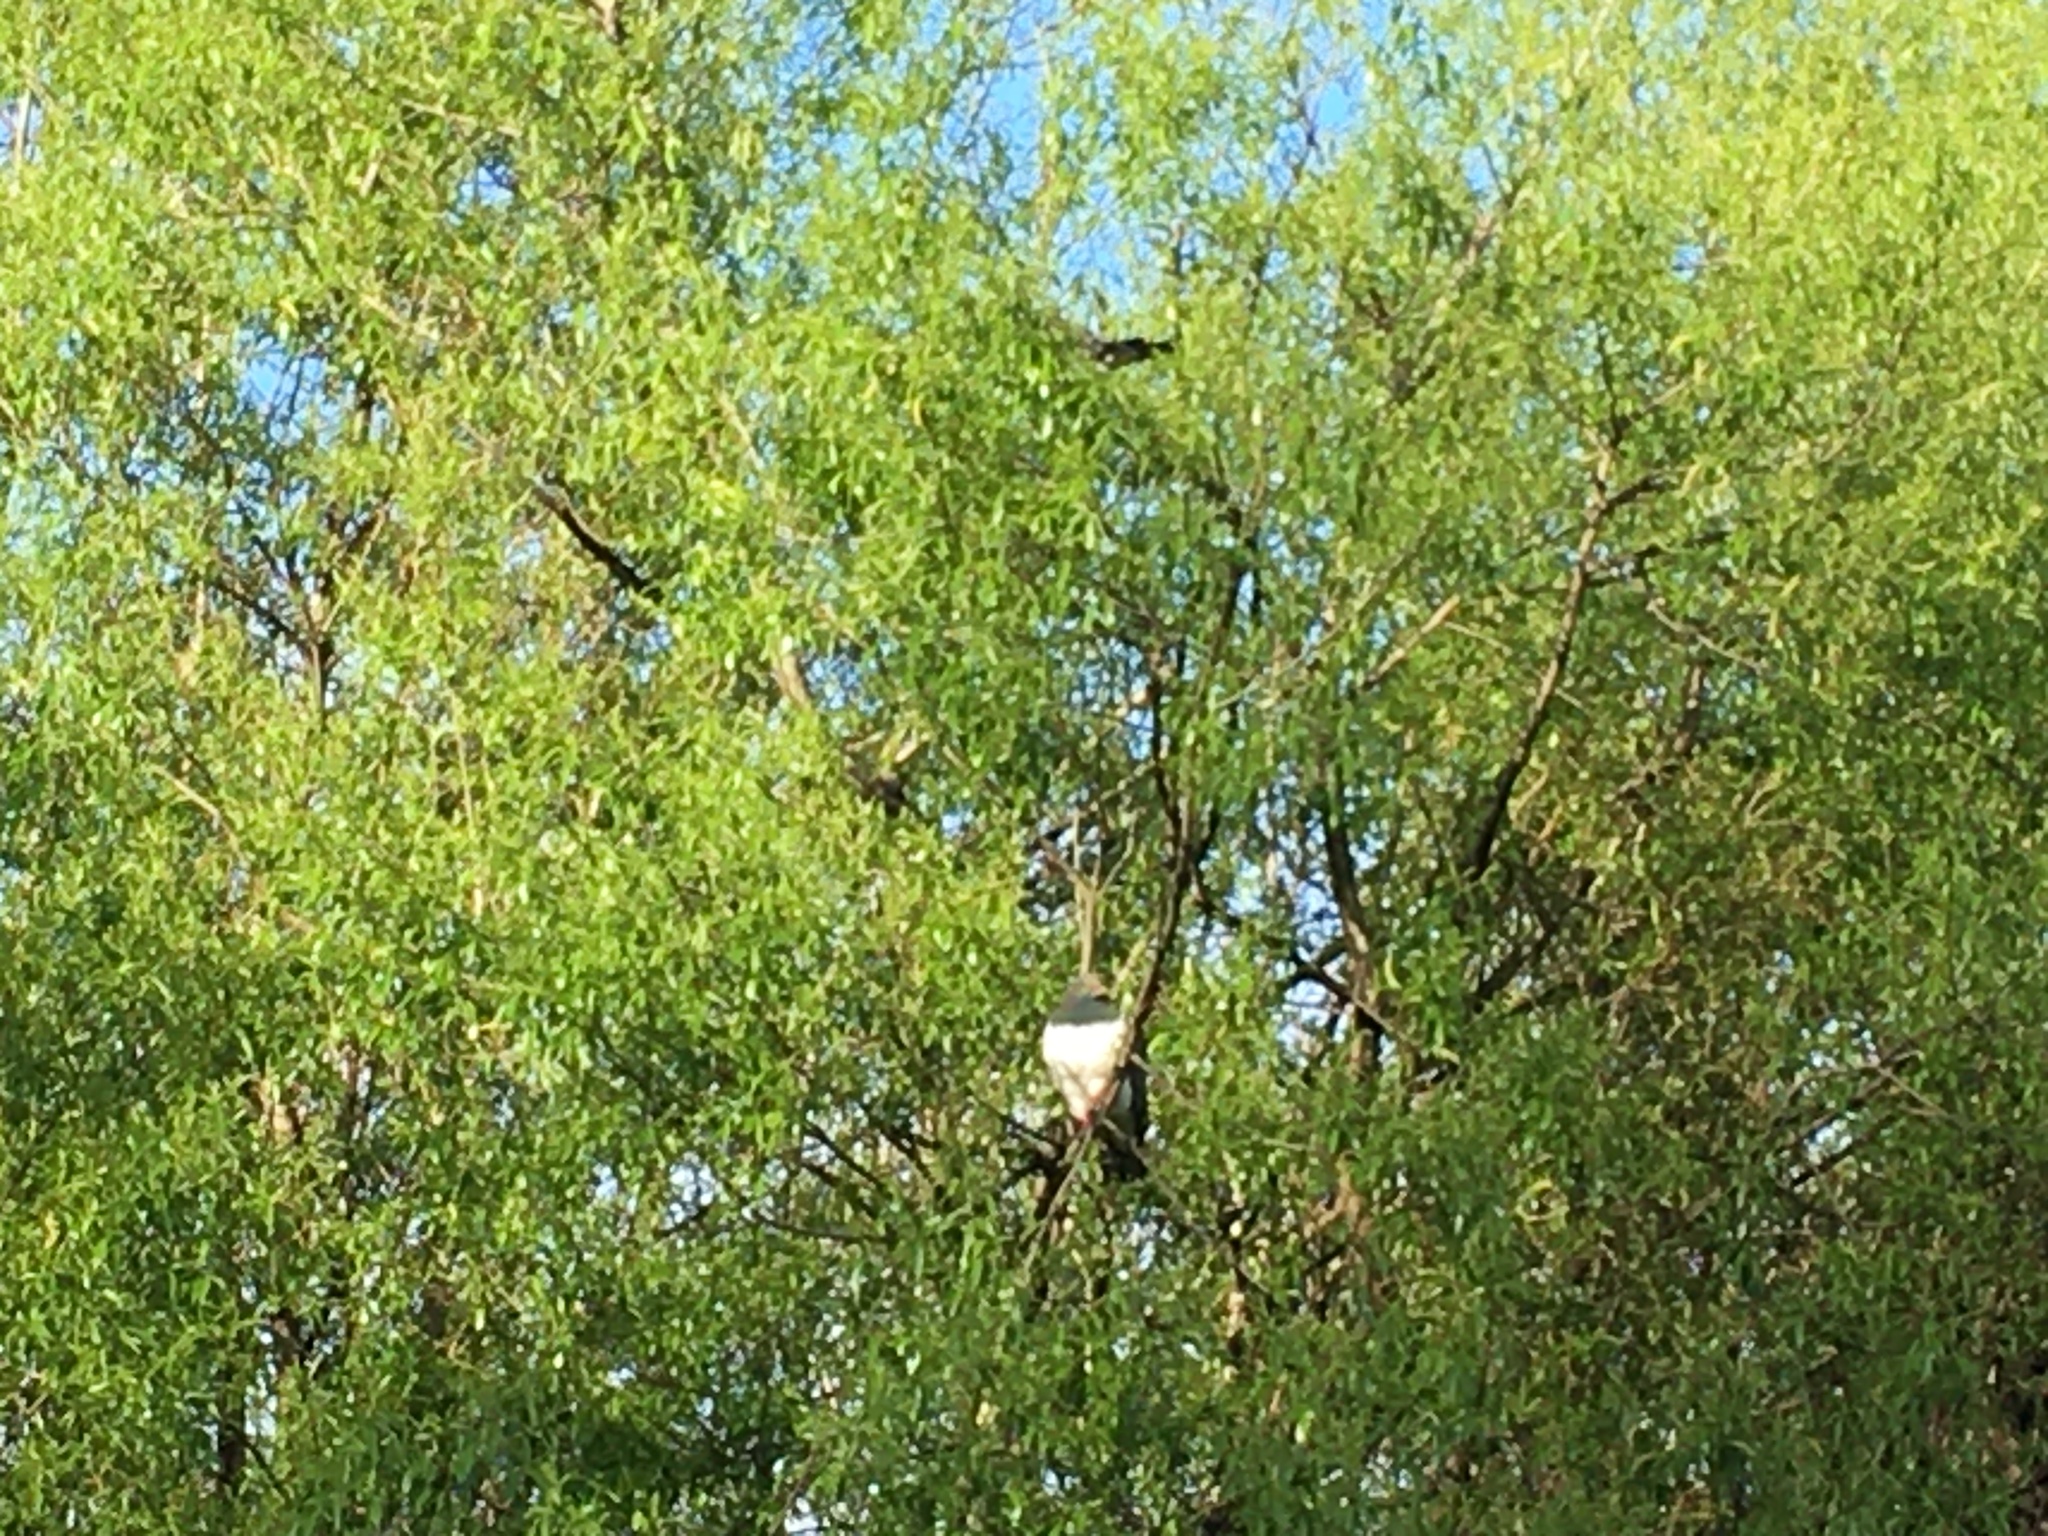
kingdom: Animalia
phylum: Chordata
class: Aves
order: Columbiformes
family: Columbidae
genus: Hemiphaga
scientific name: Hemiphaga novaeseelandiae
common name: New zealand pigeon
